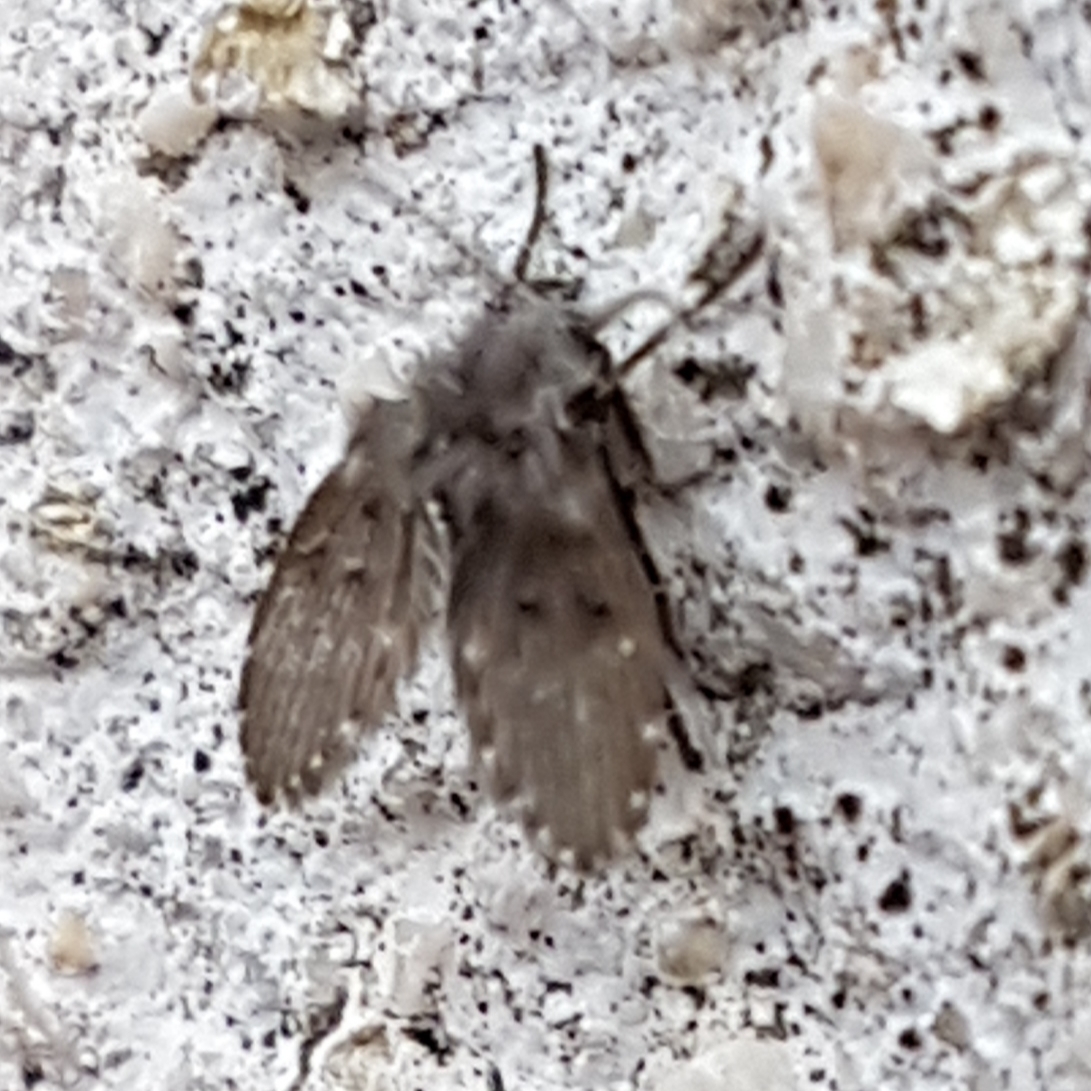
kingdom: Animalia
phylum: Arthropoda
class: Insecta
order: Diptera
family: Psychodidae
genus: Clogmia
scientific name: Clogmia albipunctatus
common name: White-spotted moth fly
